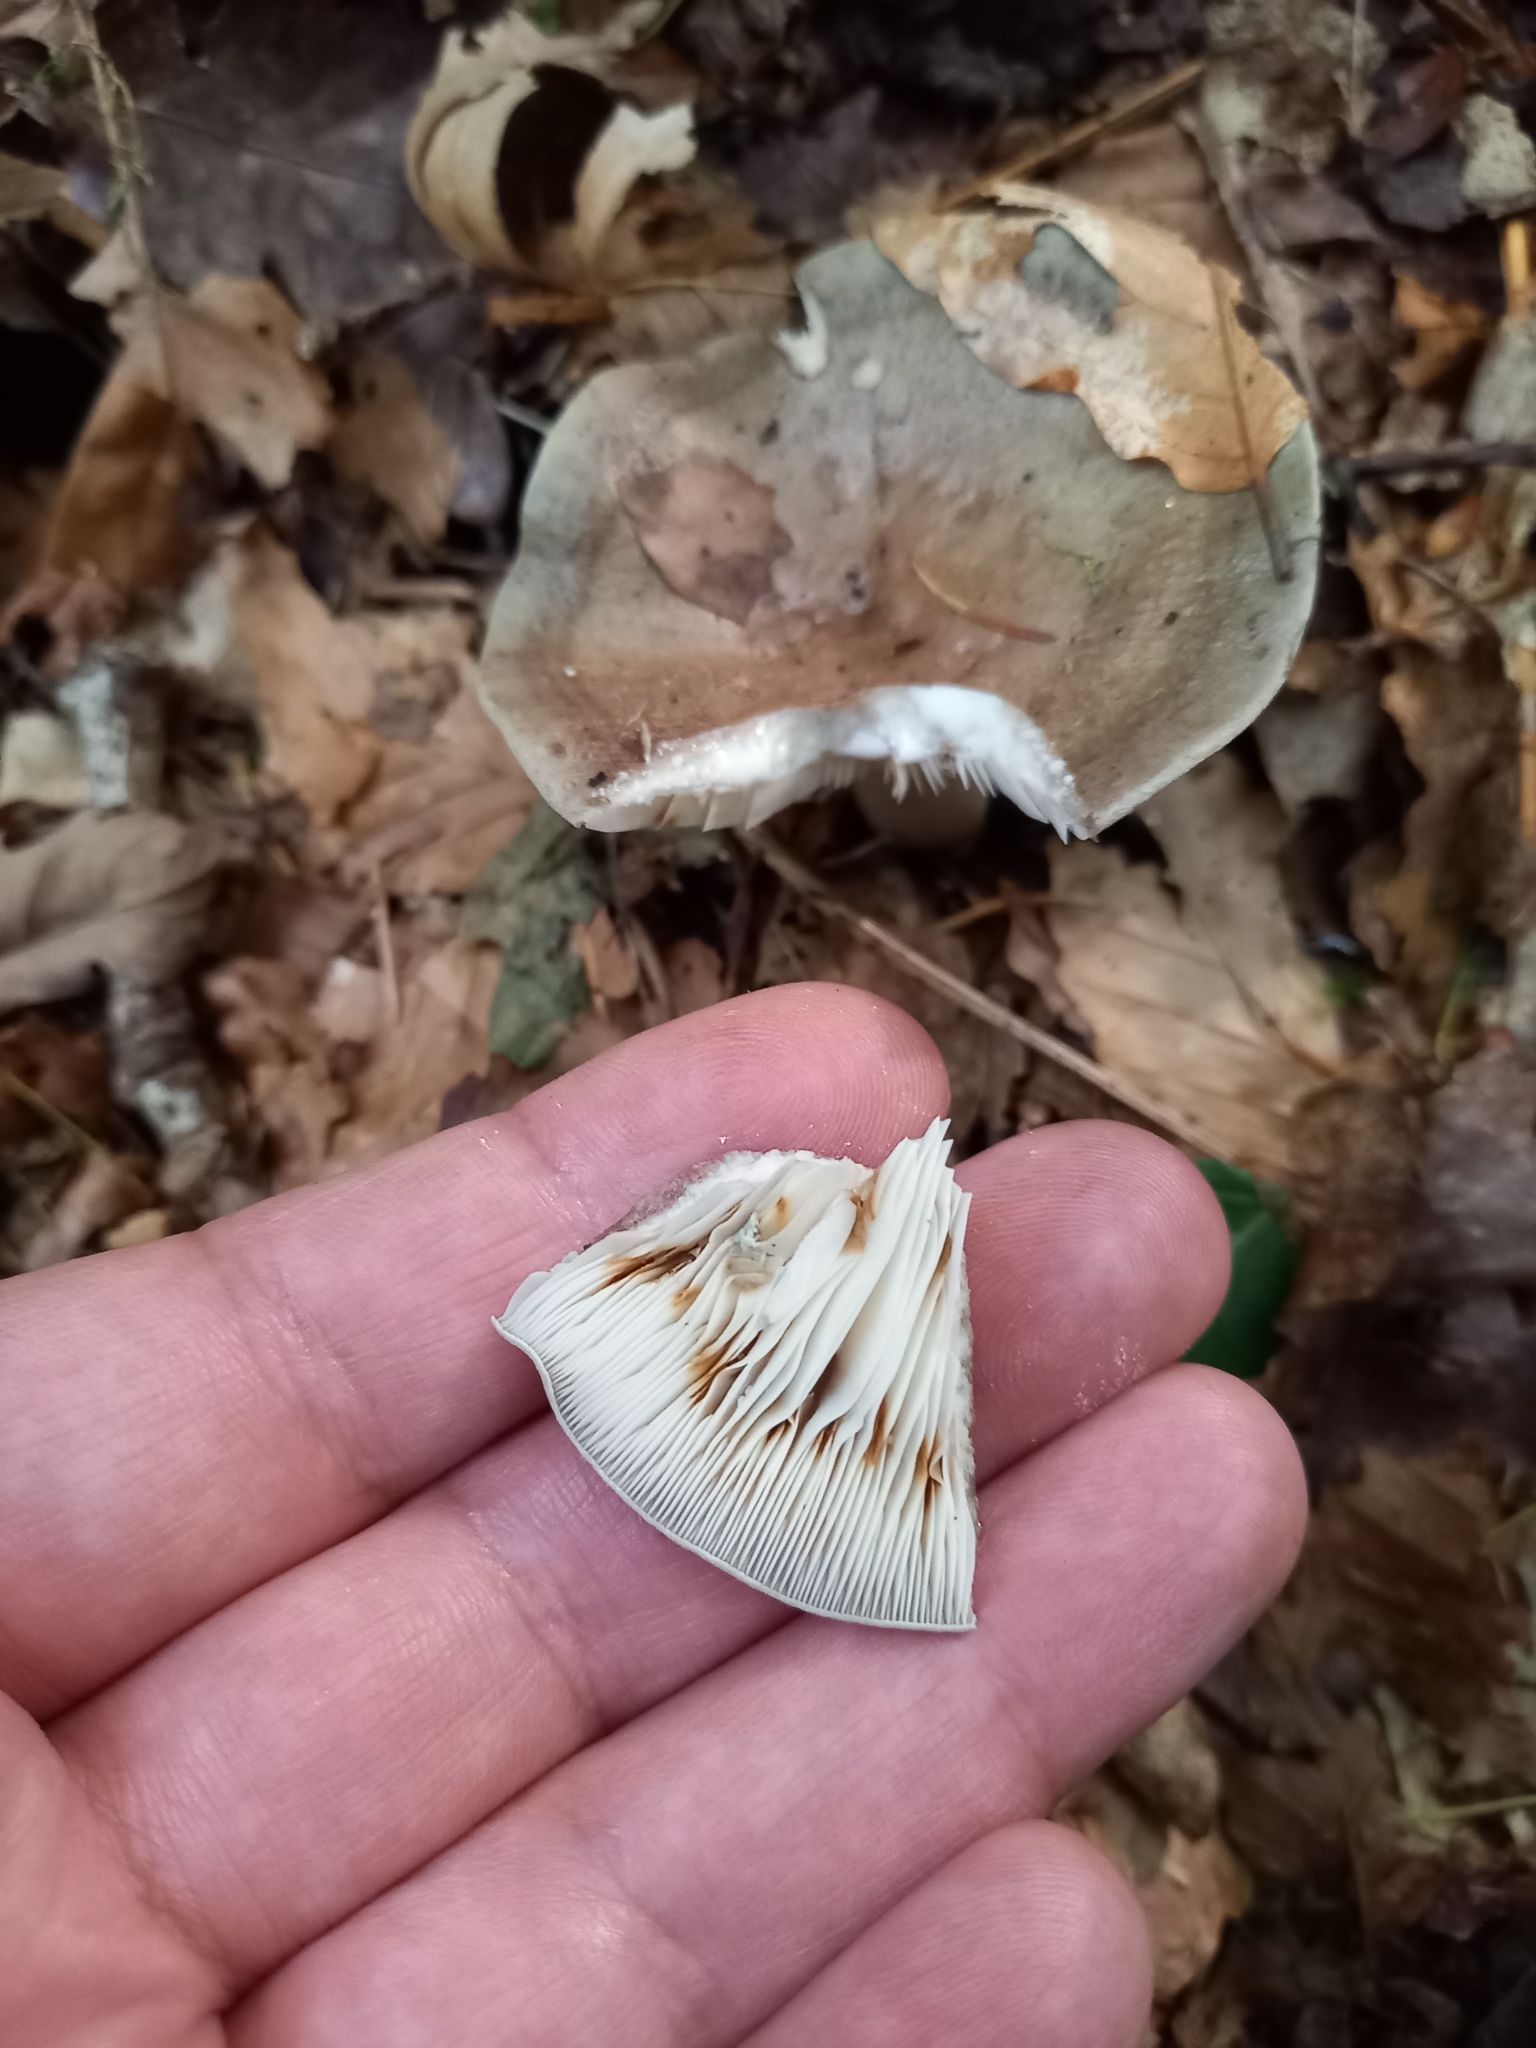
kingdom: Fungi
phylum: Basidiomycota
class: Agaricomycetes
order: Russulales
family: Russulaceae
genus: Lactarius
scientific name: Lactarius blennius
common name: Beech milkcap
